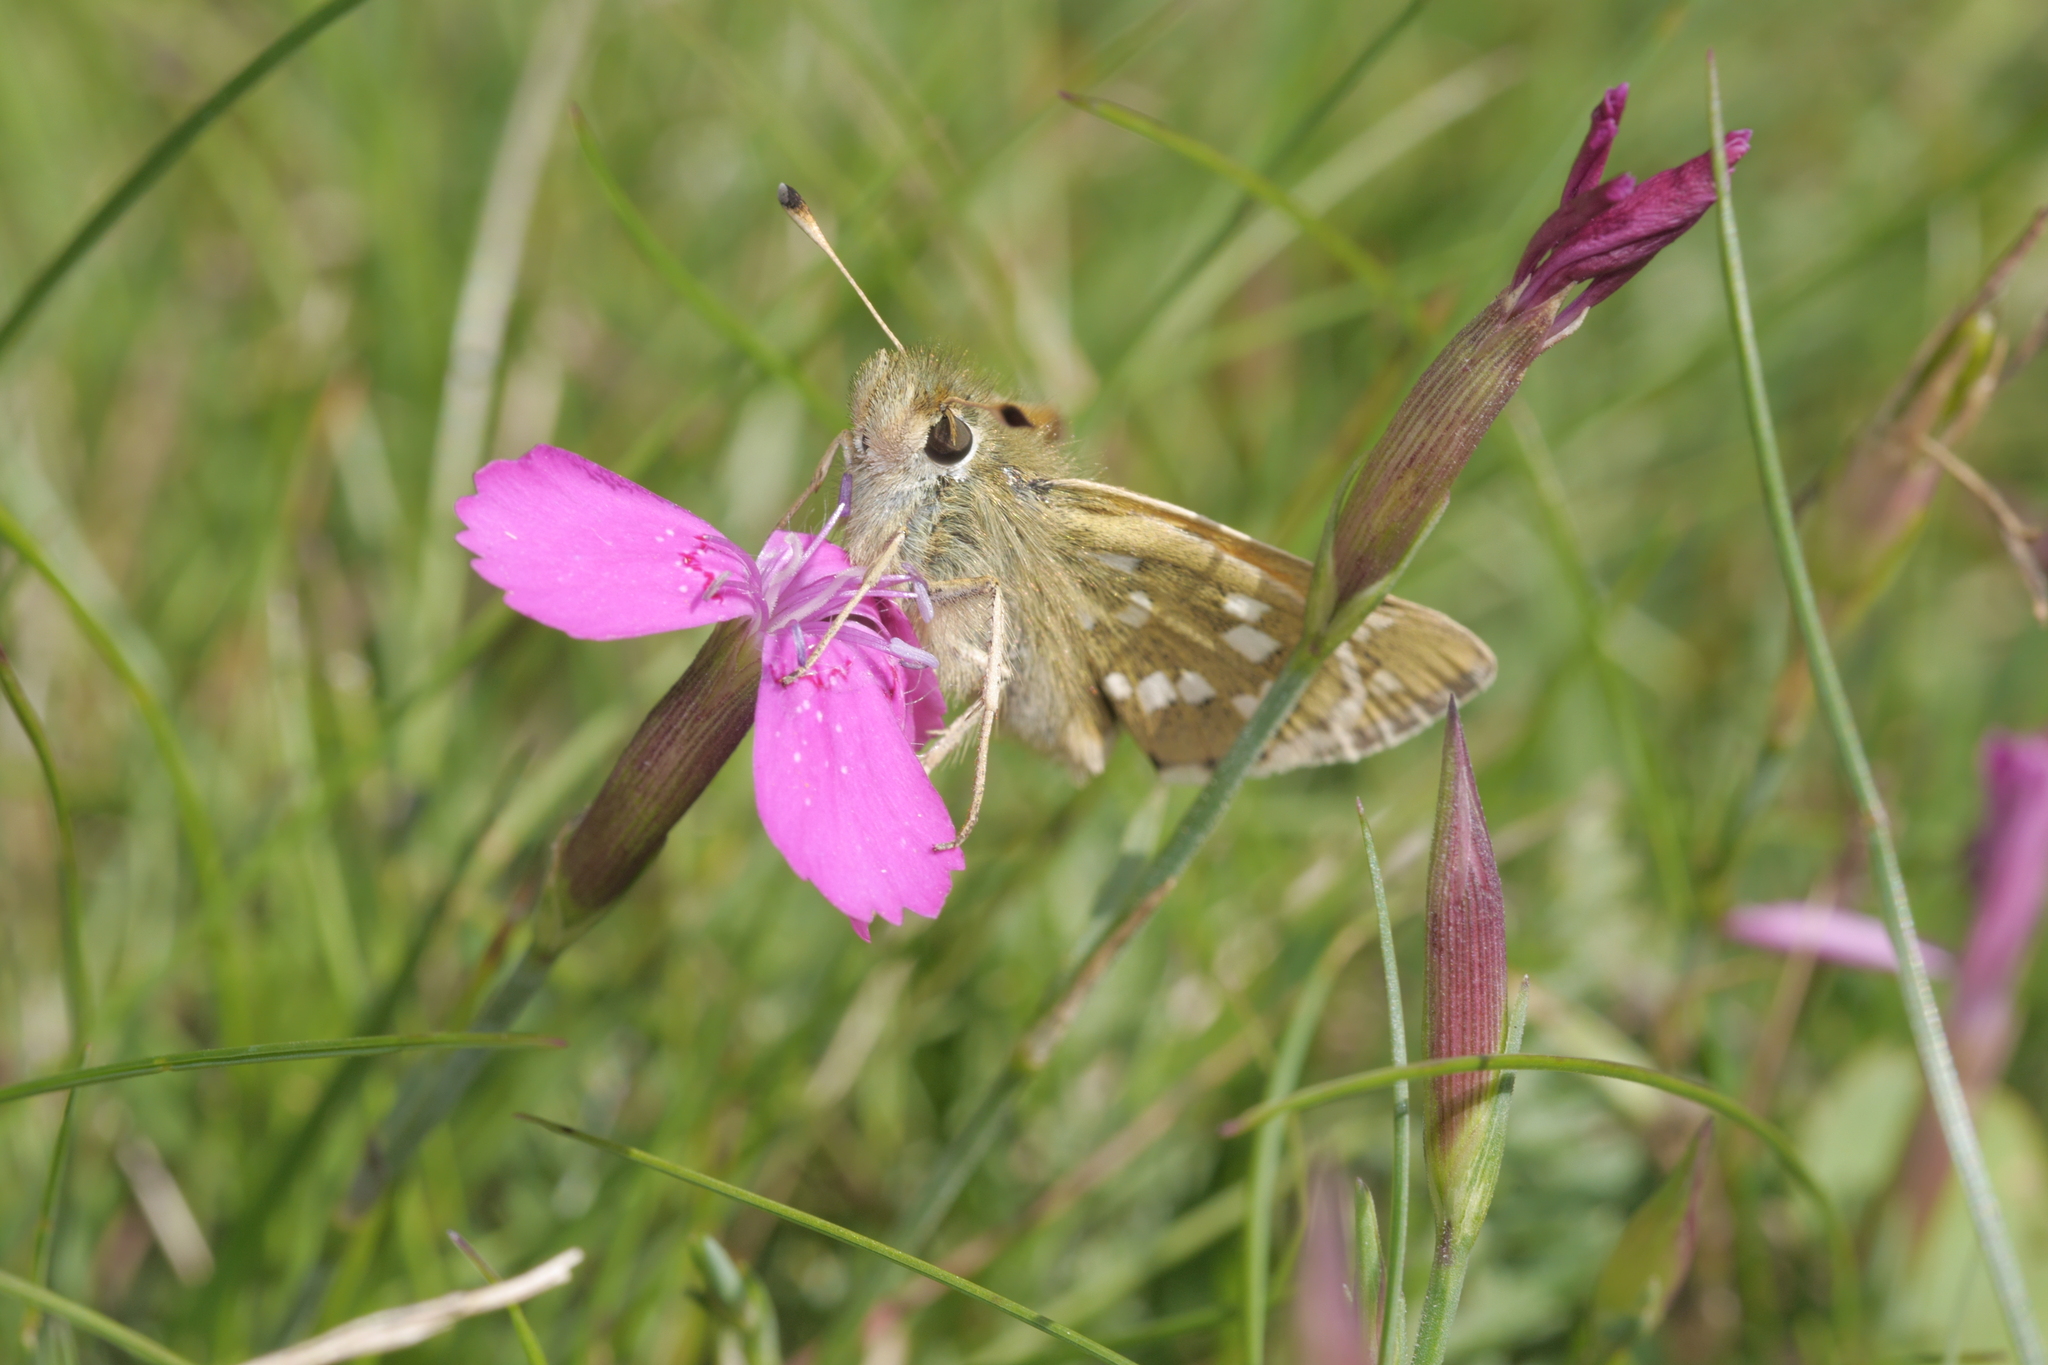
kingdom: Animalia
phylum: Arthropoda
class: Insecta
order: Lepidoptera
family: Hesperiidae
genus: Hesperia
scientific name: Hesperia comma
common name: Common branded skipper
